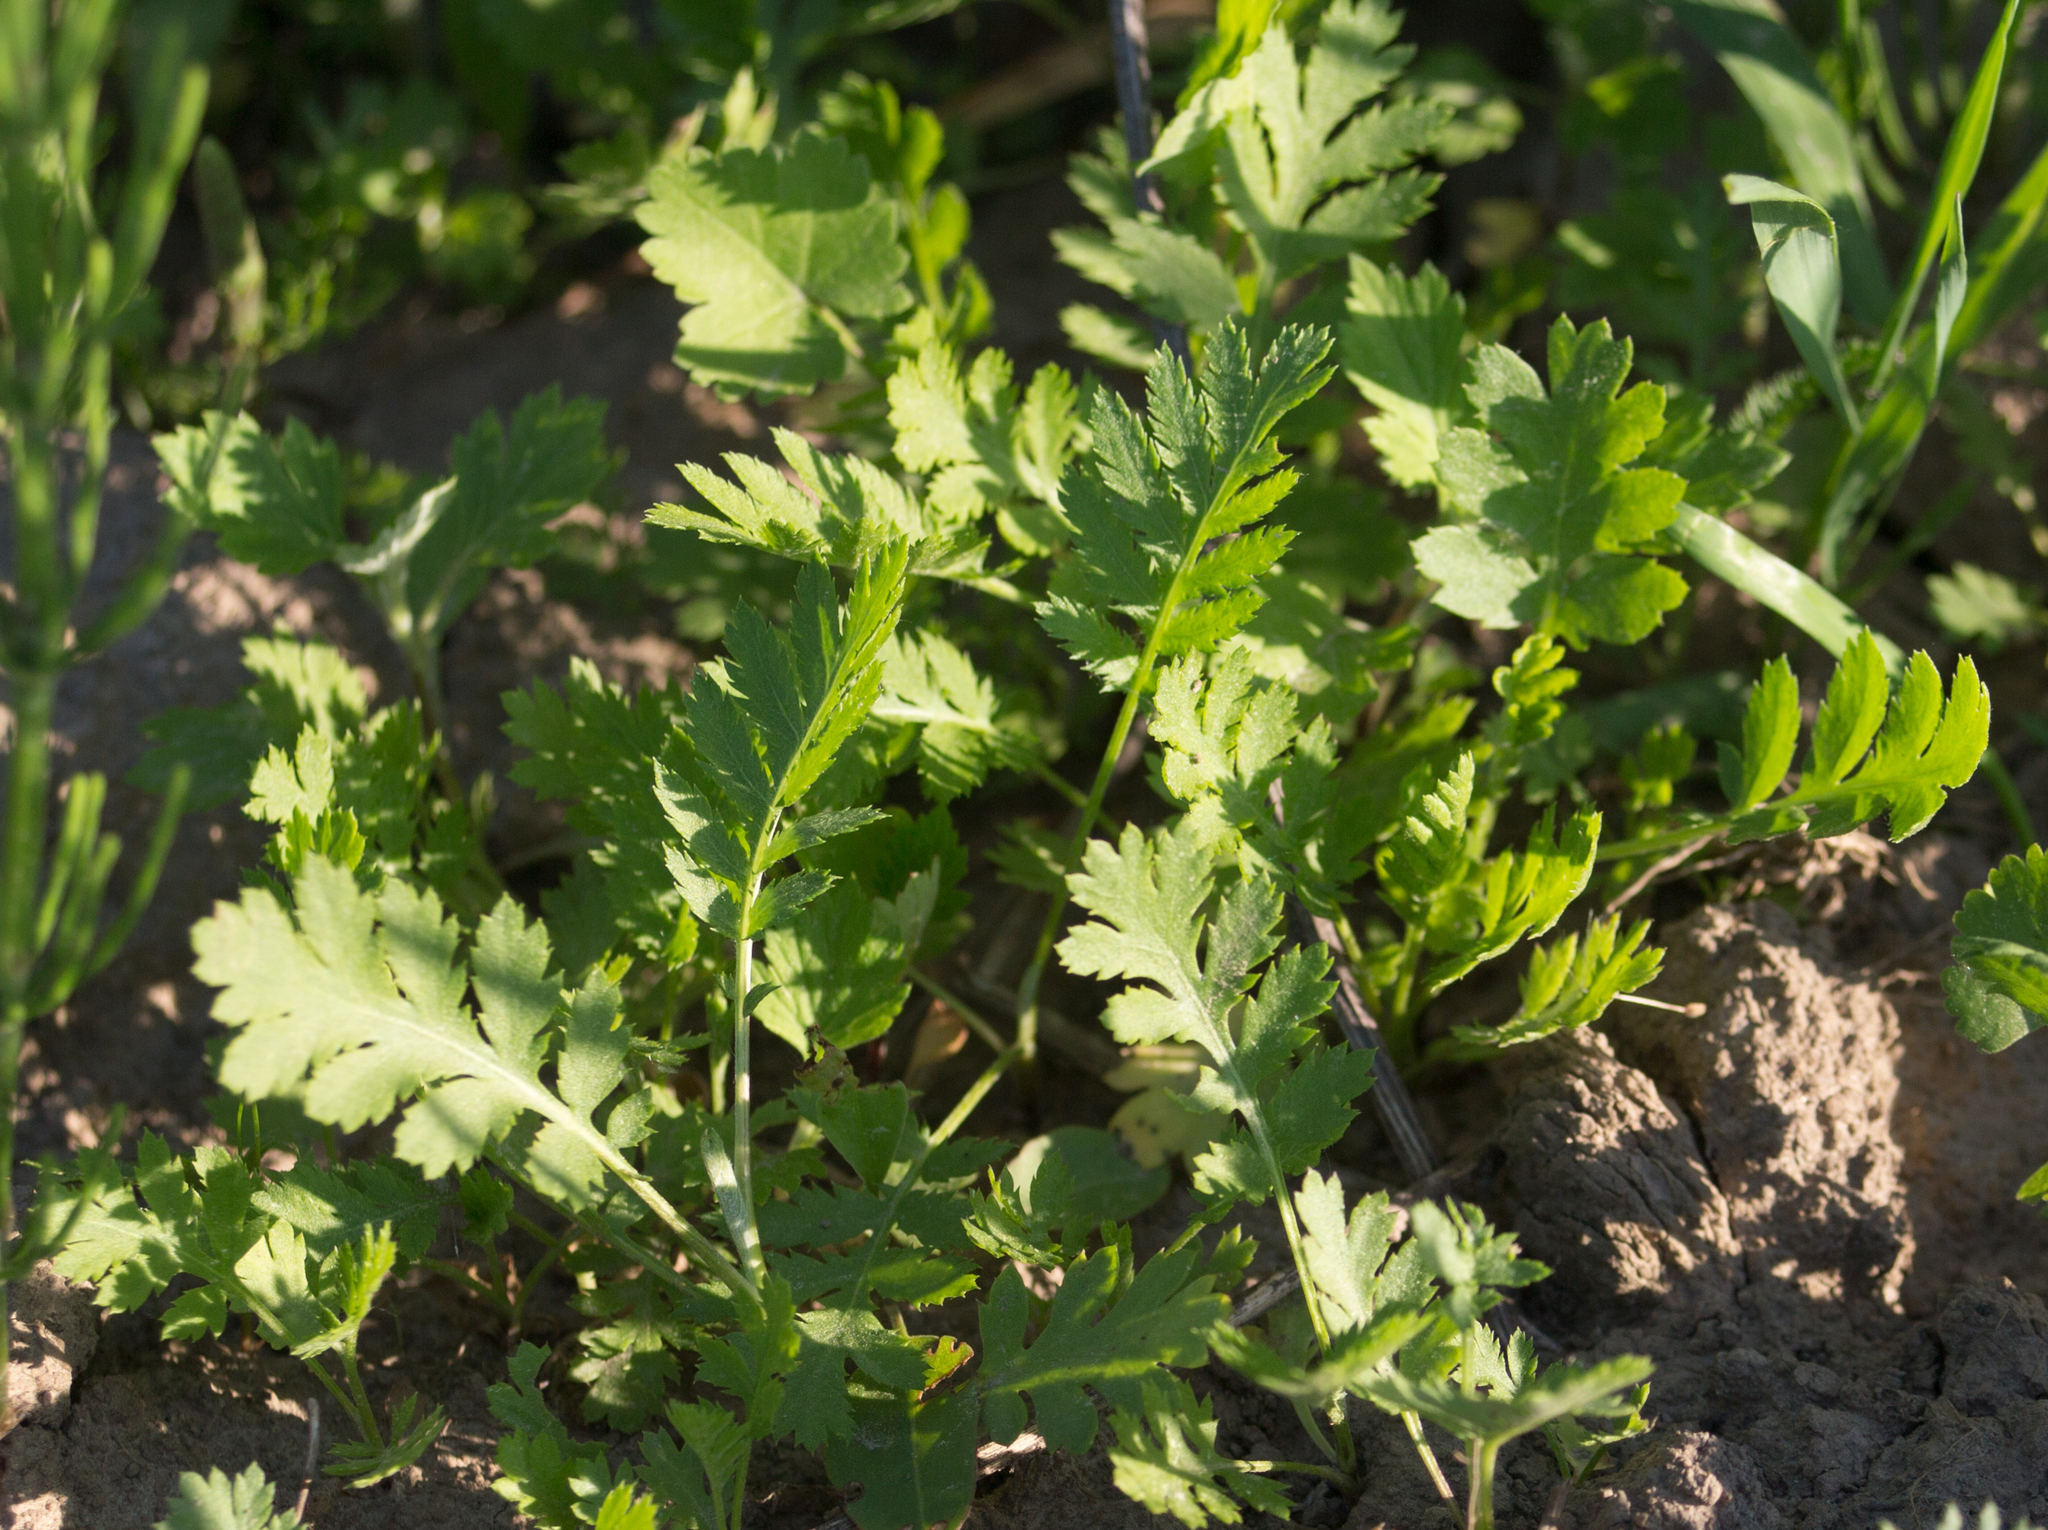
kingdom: Plantae
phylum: Tracheophyta
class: Magnoliopsida
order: Asterales
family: Asteraceae
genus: Tanacetum
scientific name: Tanacetum vulgare
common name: Common tansy
